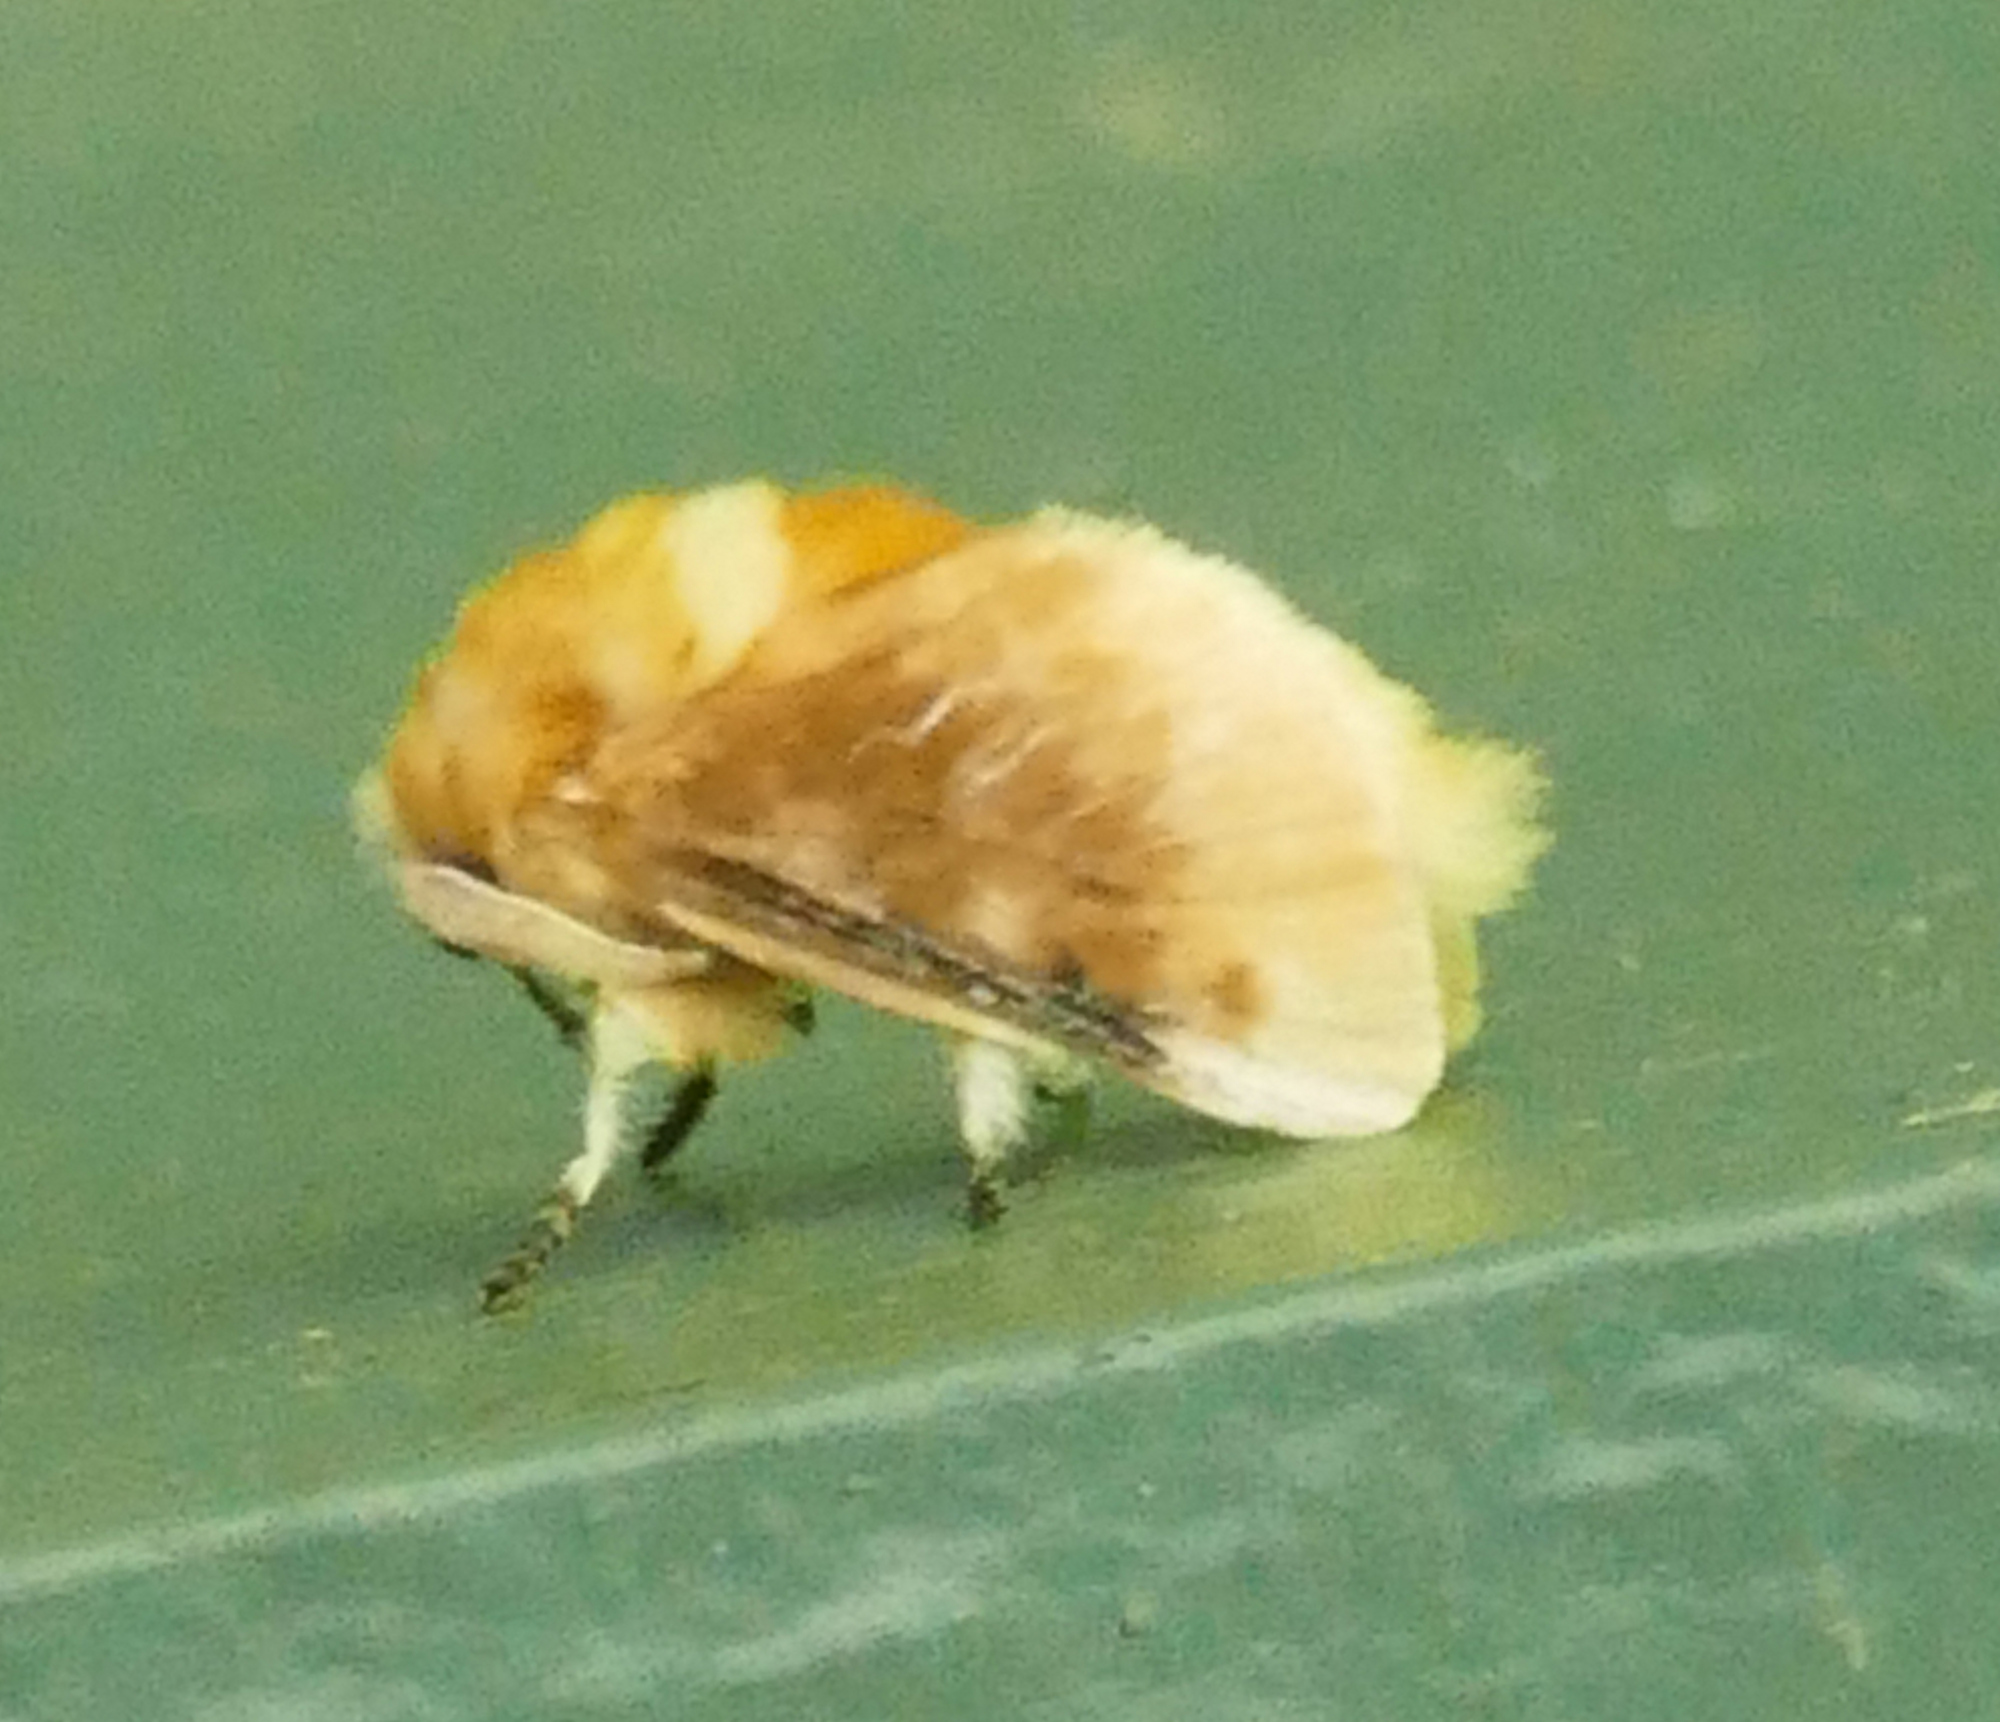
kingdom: Animalia
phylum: Arthropoda
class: Insecta
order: Lepidoptera
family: Megalopygidae
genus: Megalopyge
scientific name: Megalopyge opercularis
